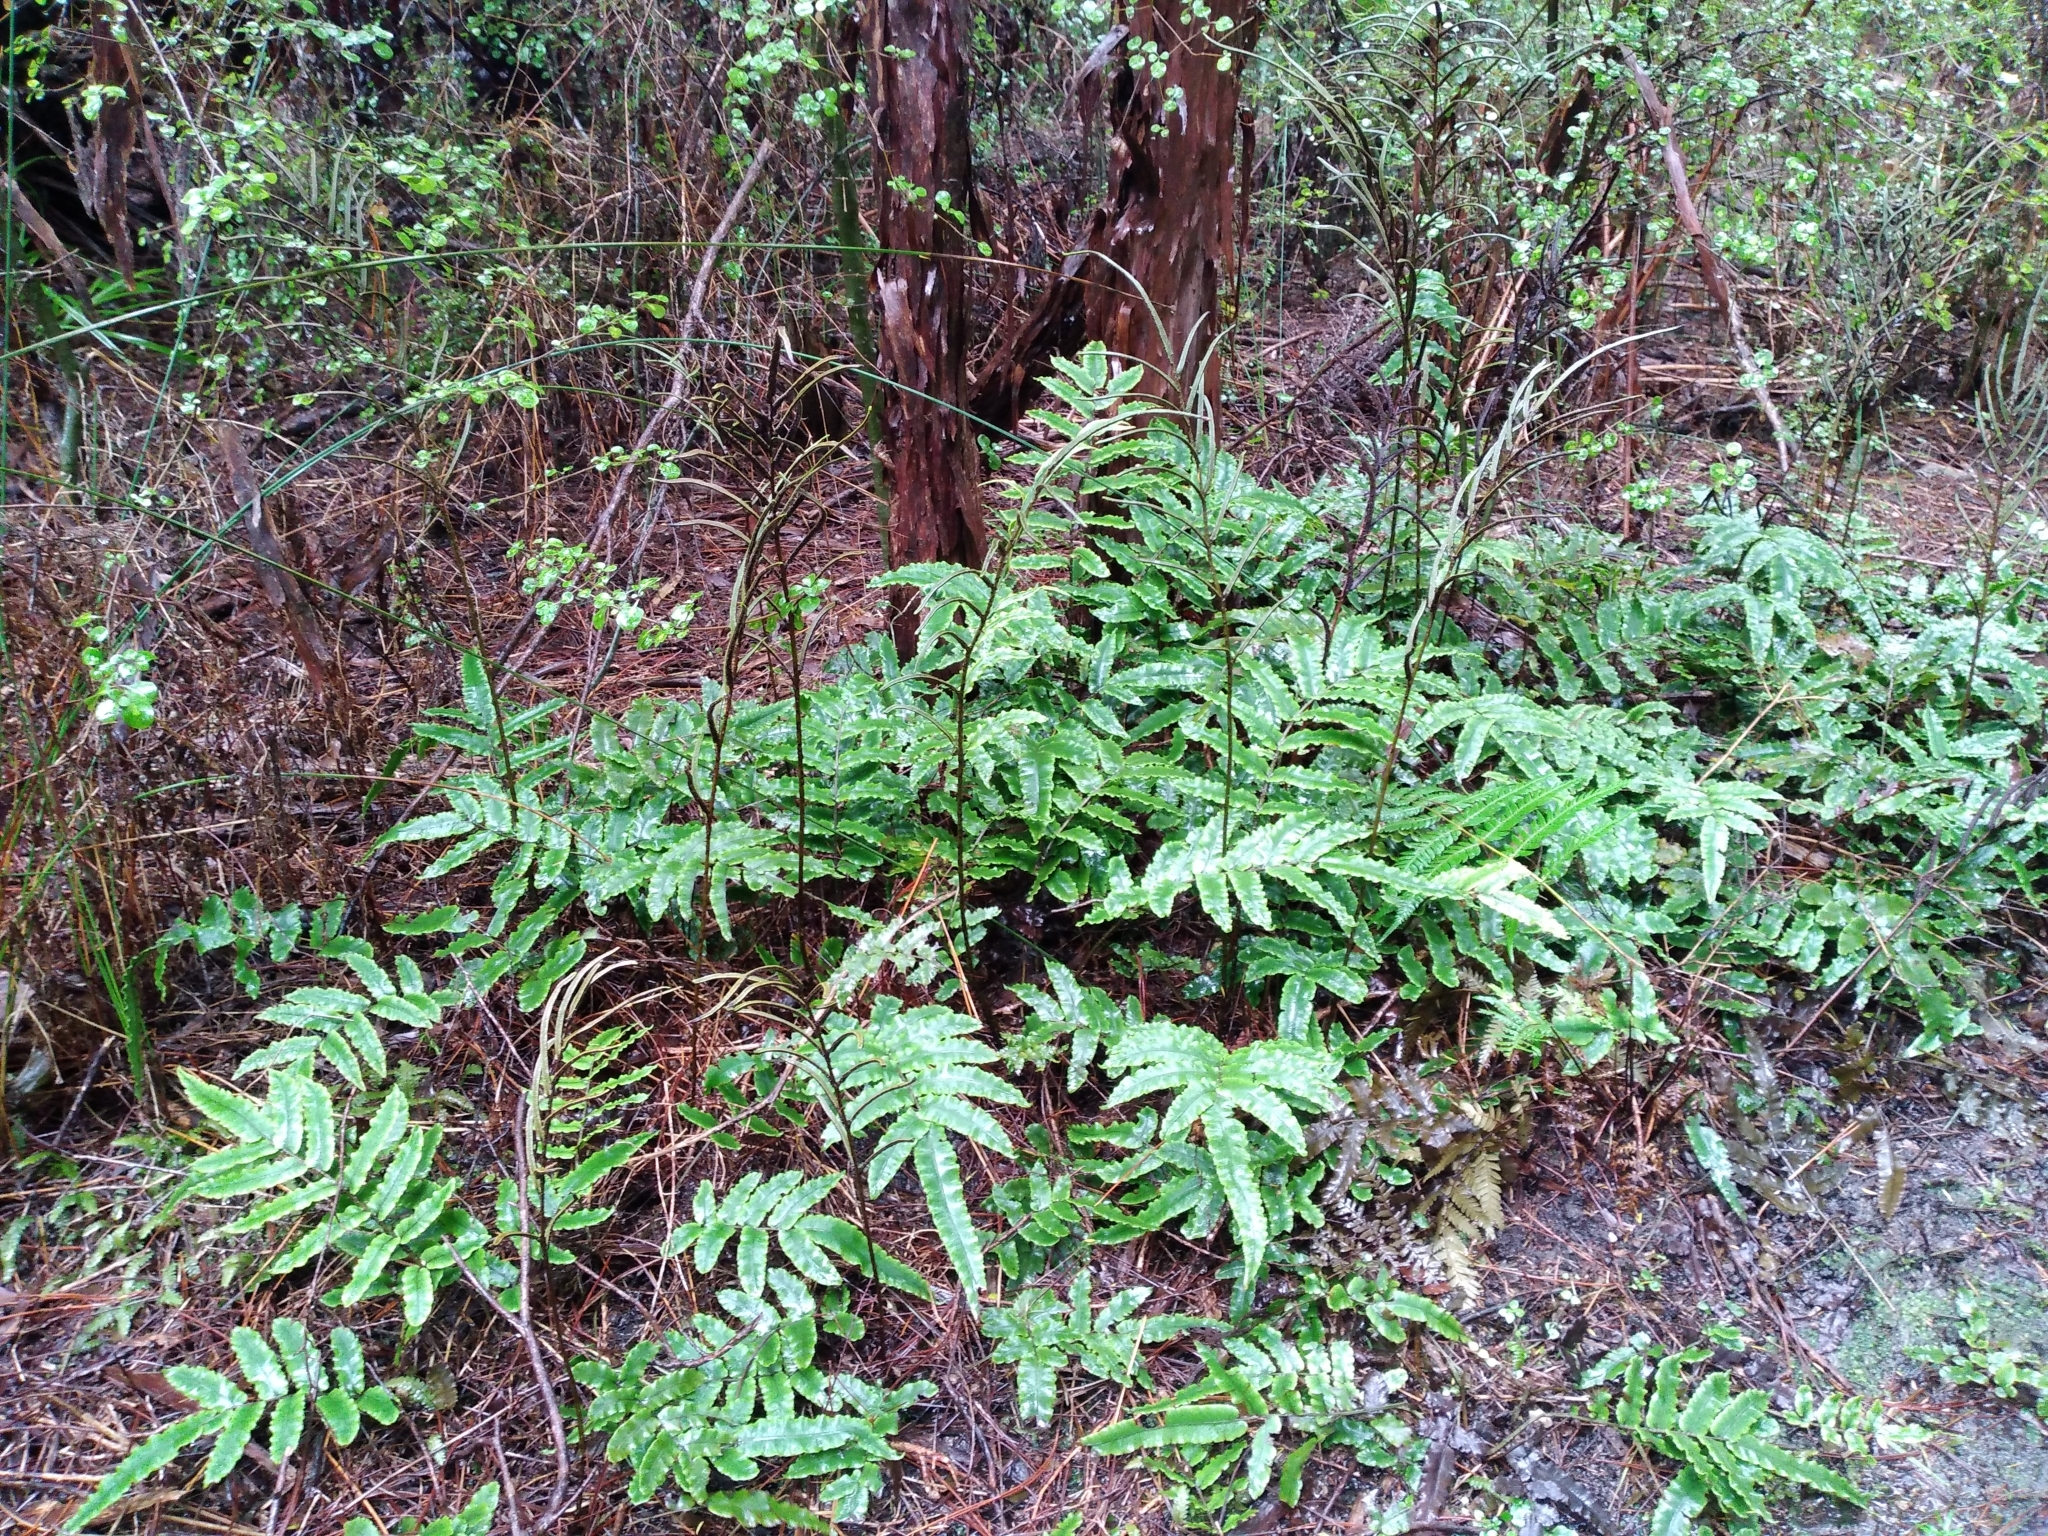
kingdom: Plantae
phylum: Tracheophyta
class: Polypodiopsida
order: Polypodiales
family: Blechnaceae
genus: Parablechnum
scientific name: Parablechnum procerum
